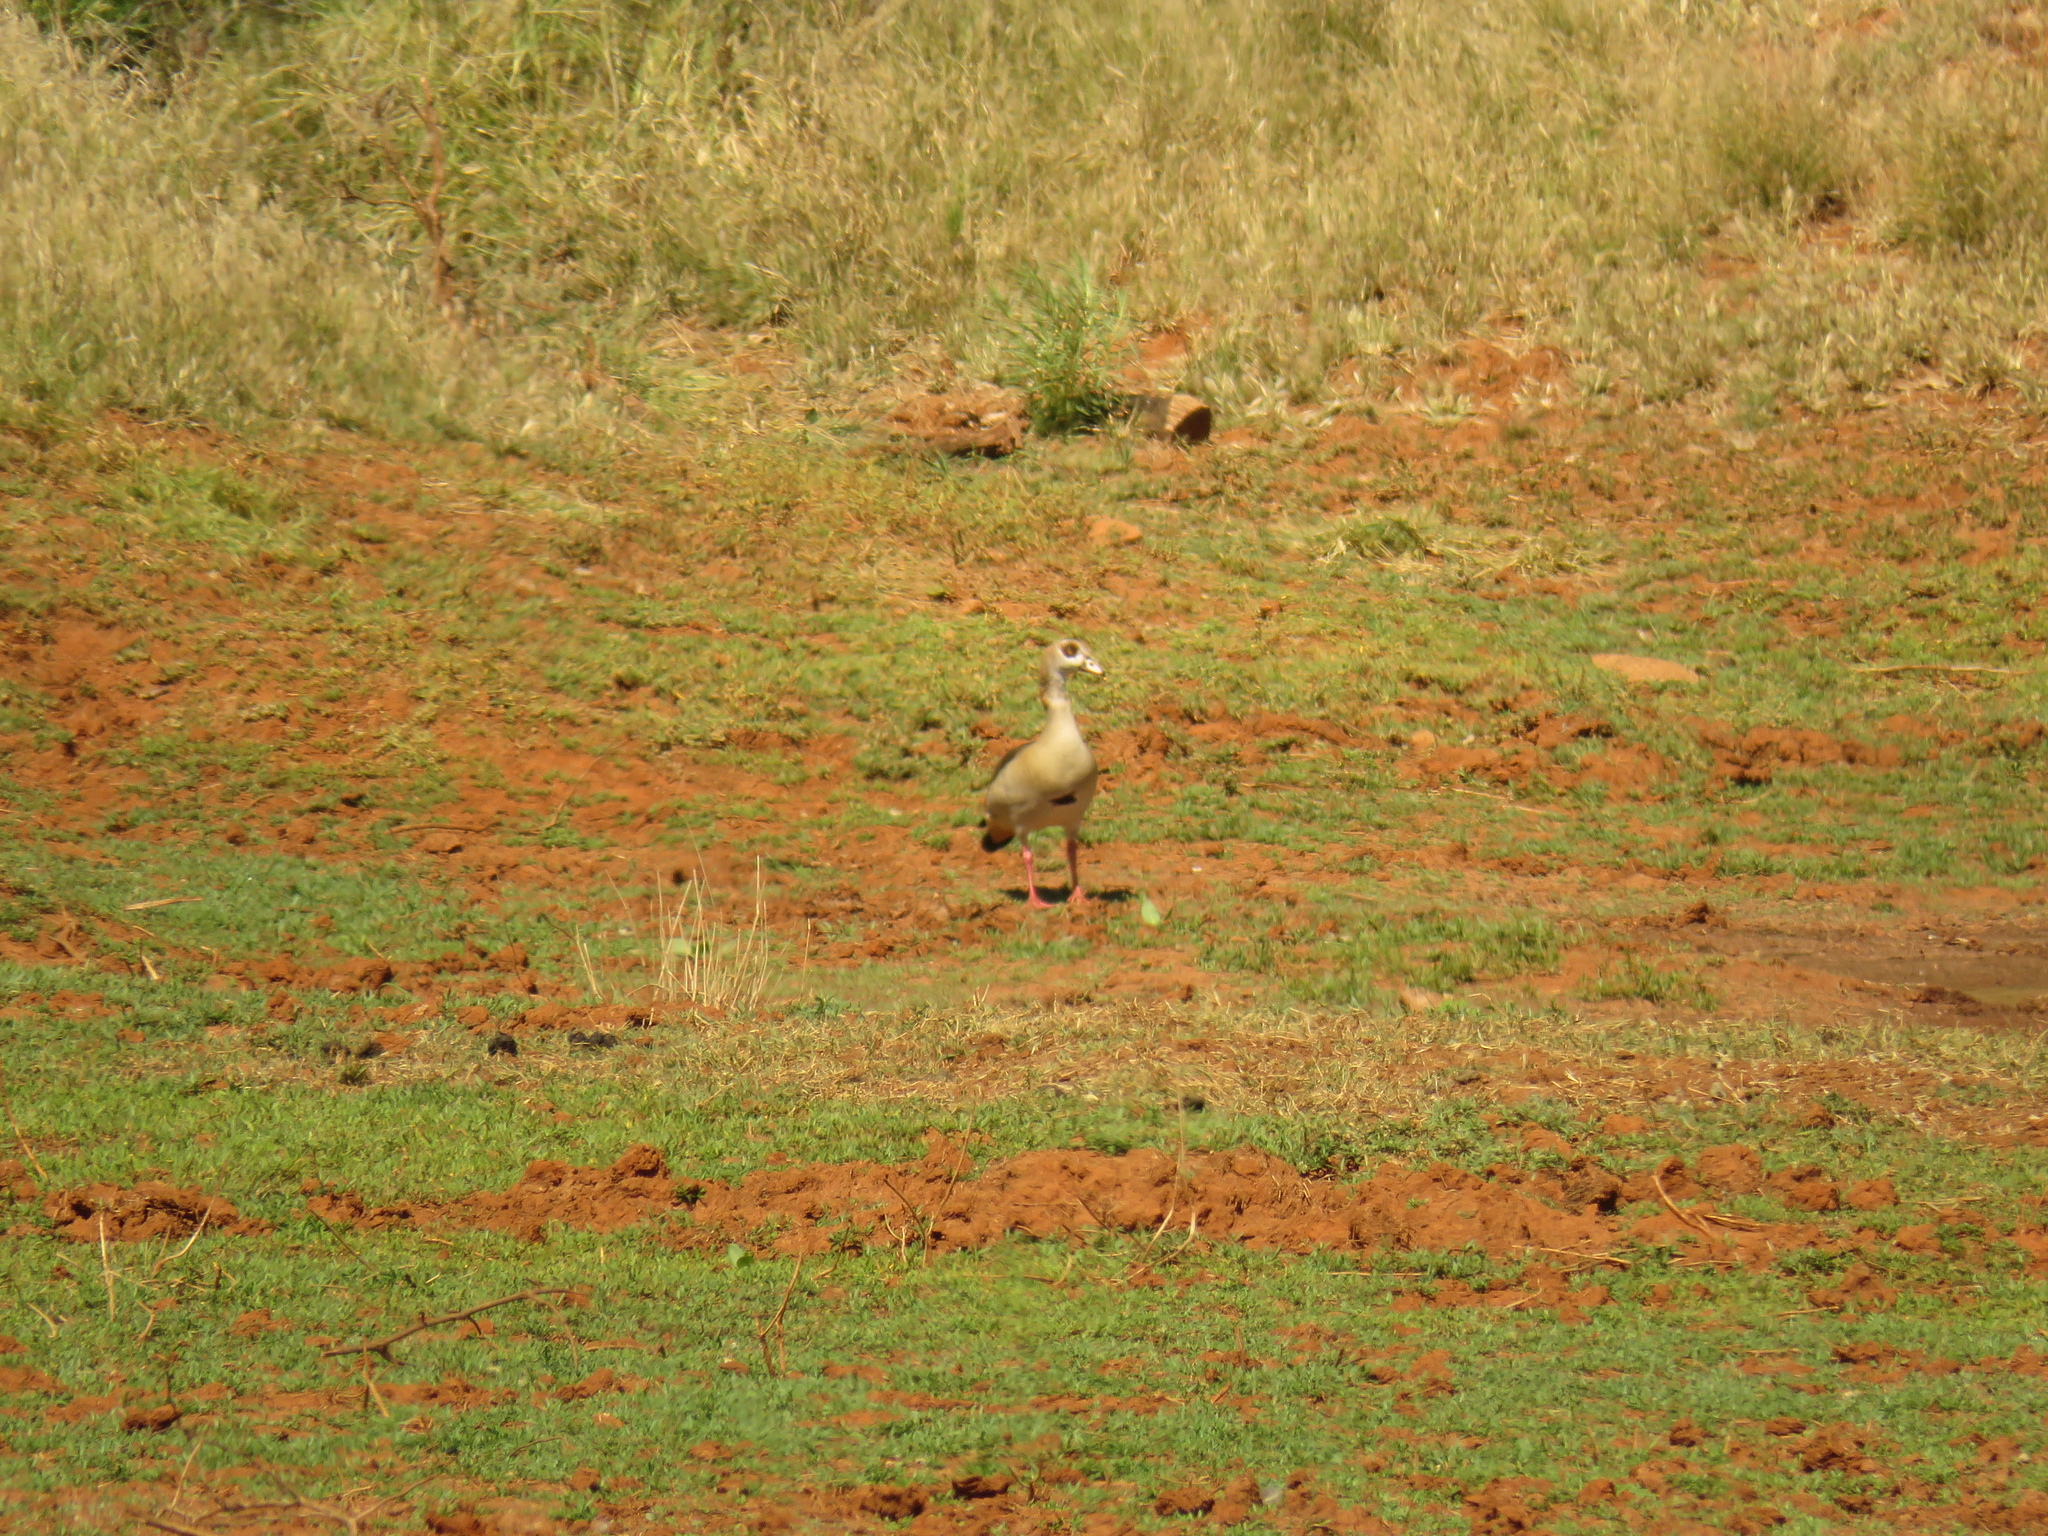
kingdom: Animalia
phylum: Chordata
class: Aves
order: Anseriformes
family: Anatidae
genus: Alopochen
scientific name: Alopochen aegyptiaca
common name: Egyptian goose
